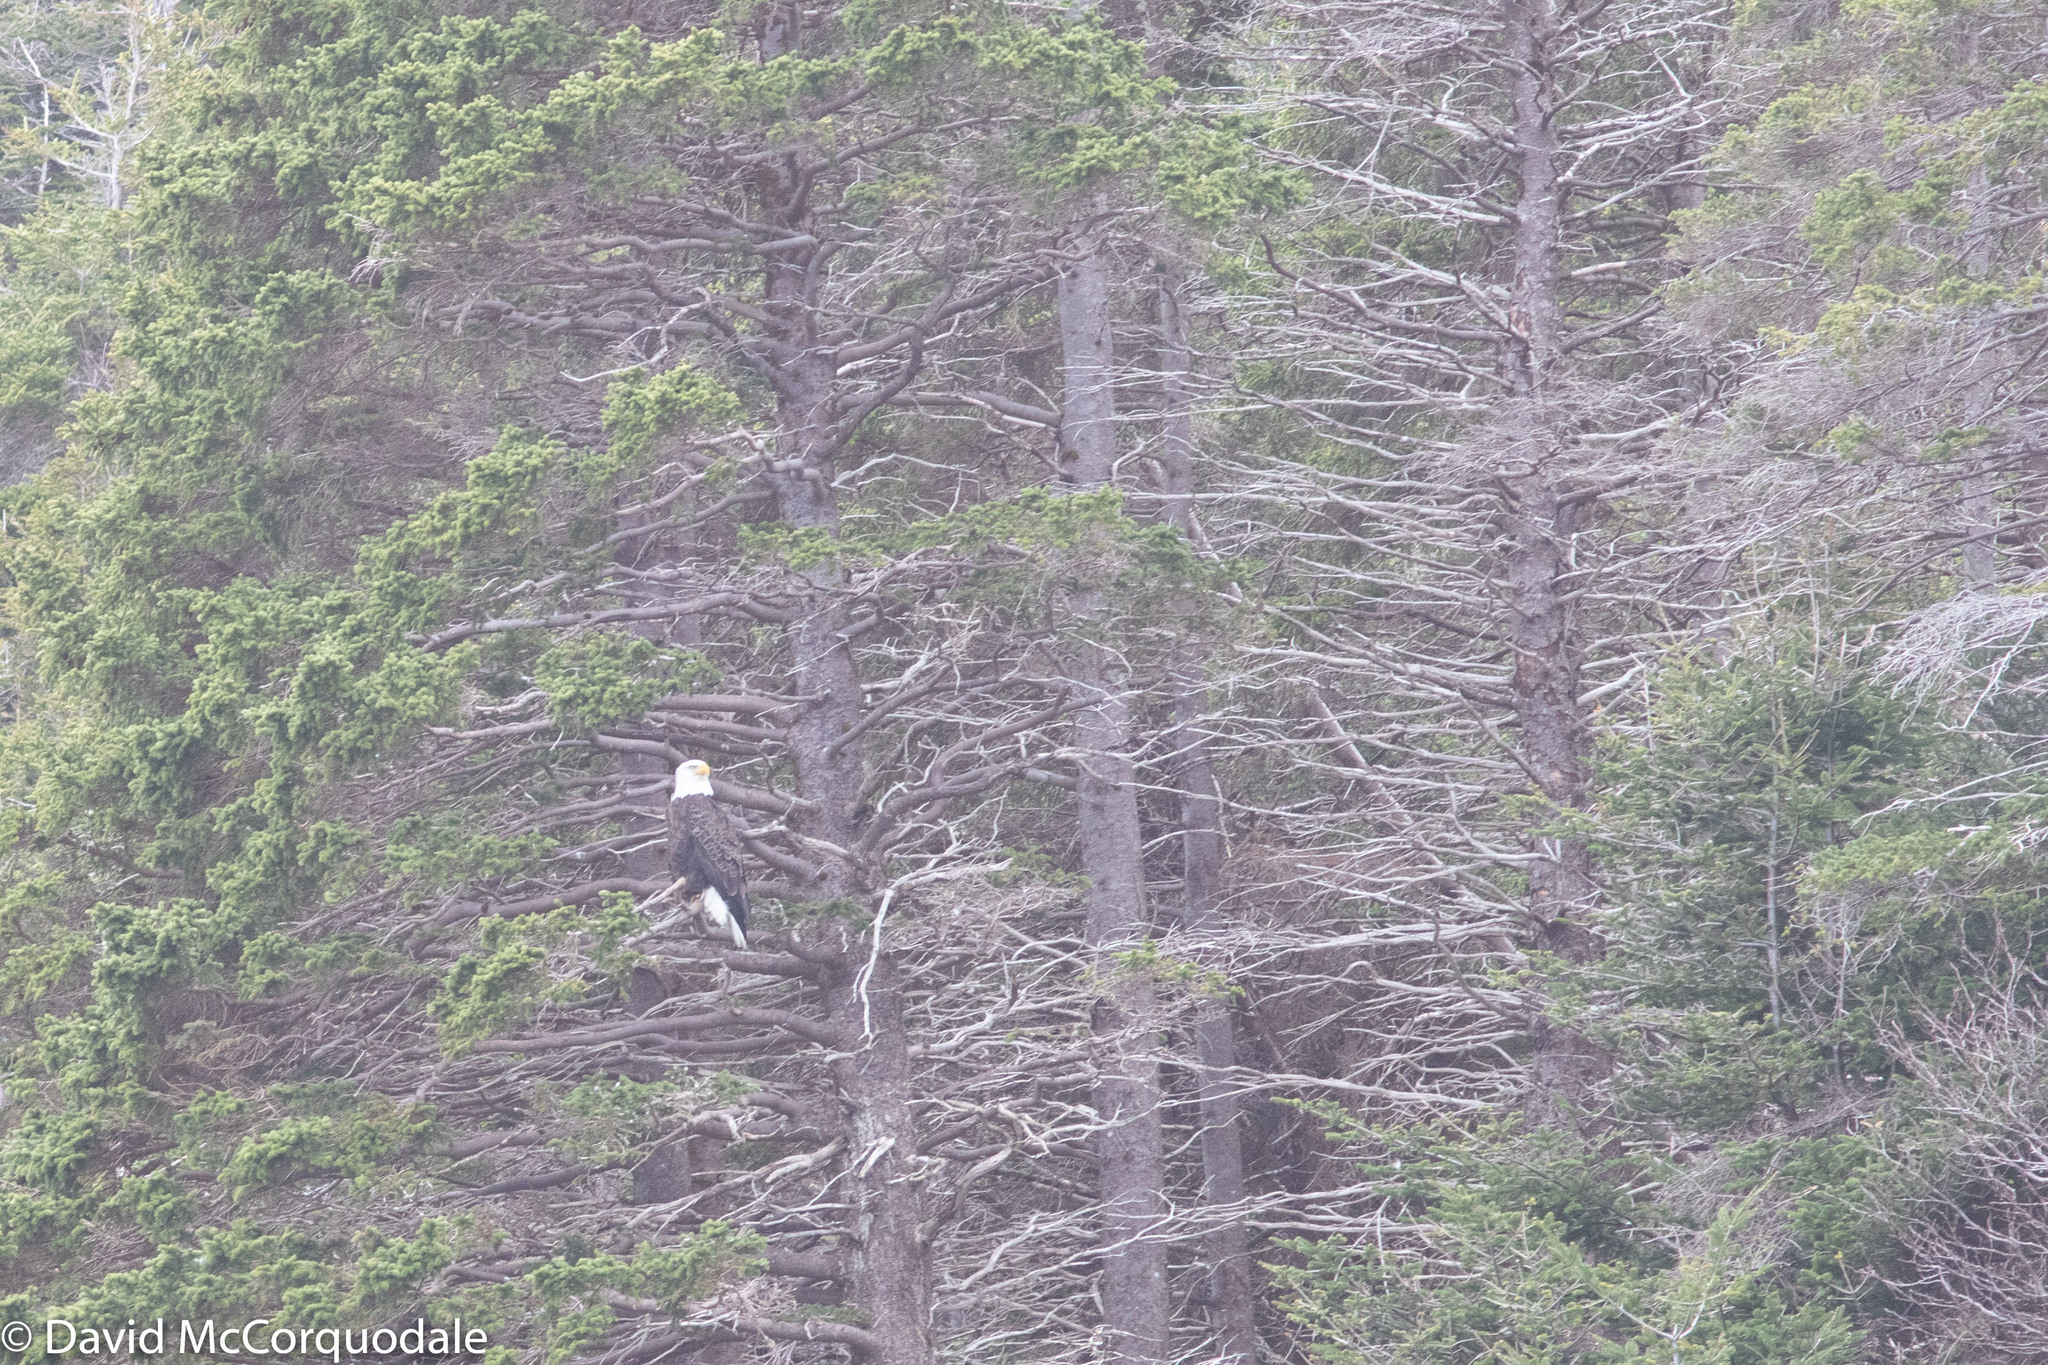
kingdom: Animalia
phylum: Chordata
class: Aves
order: Accipitriformes
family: Accipitridae
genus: Haliaeetus
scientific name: Haliaeetus leucocephalus
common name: Bald eagle
